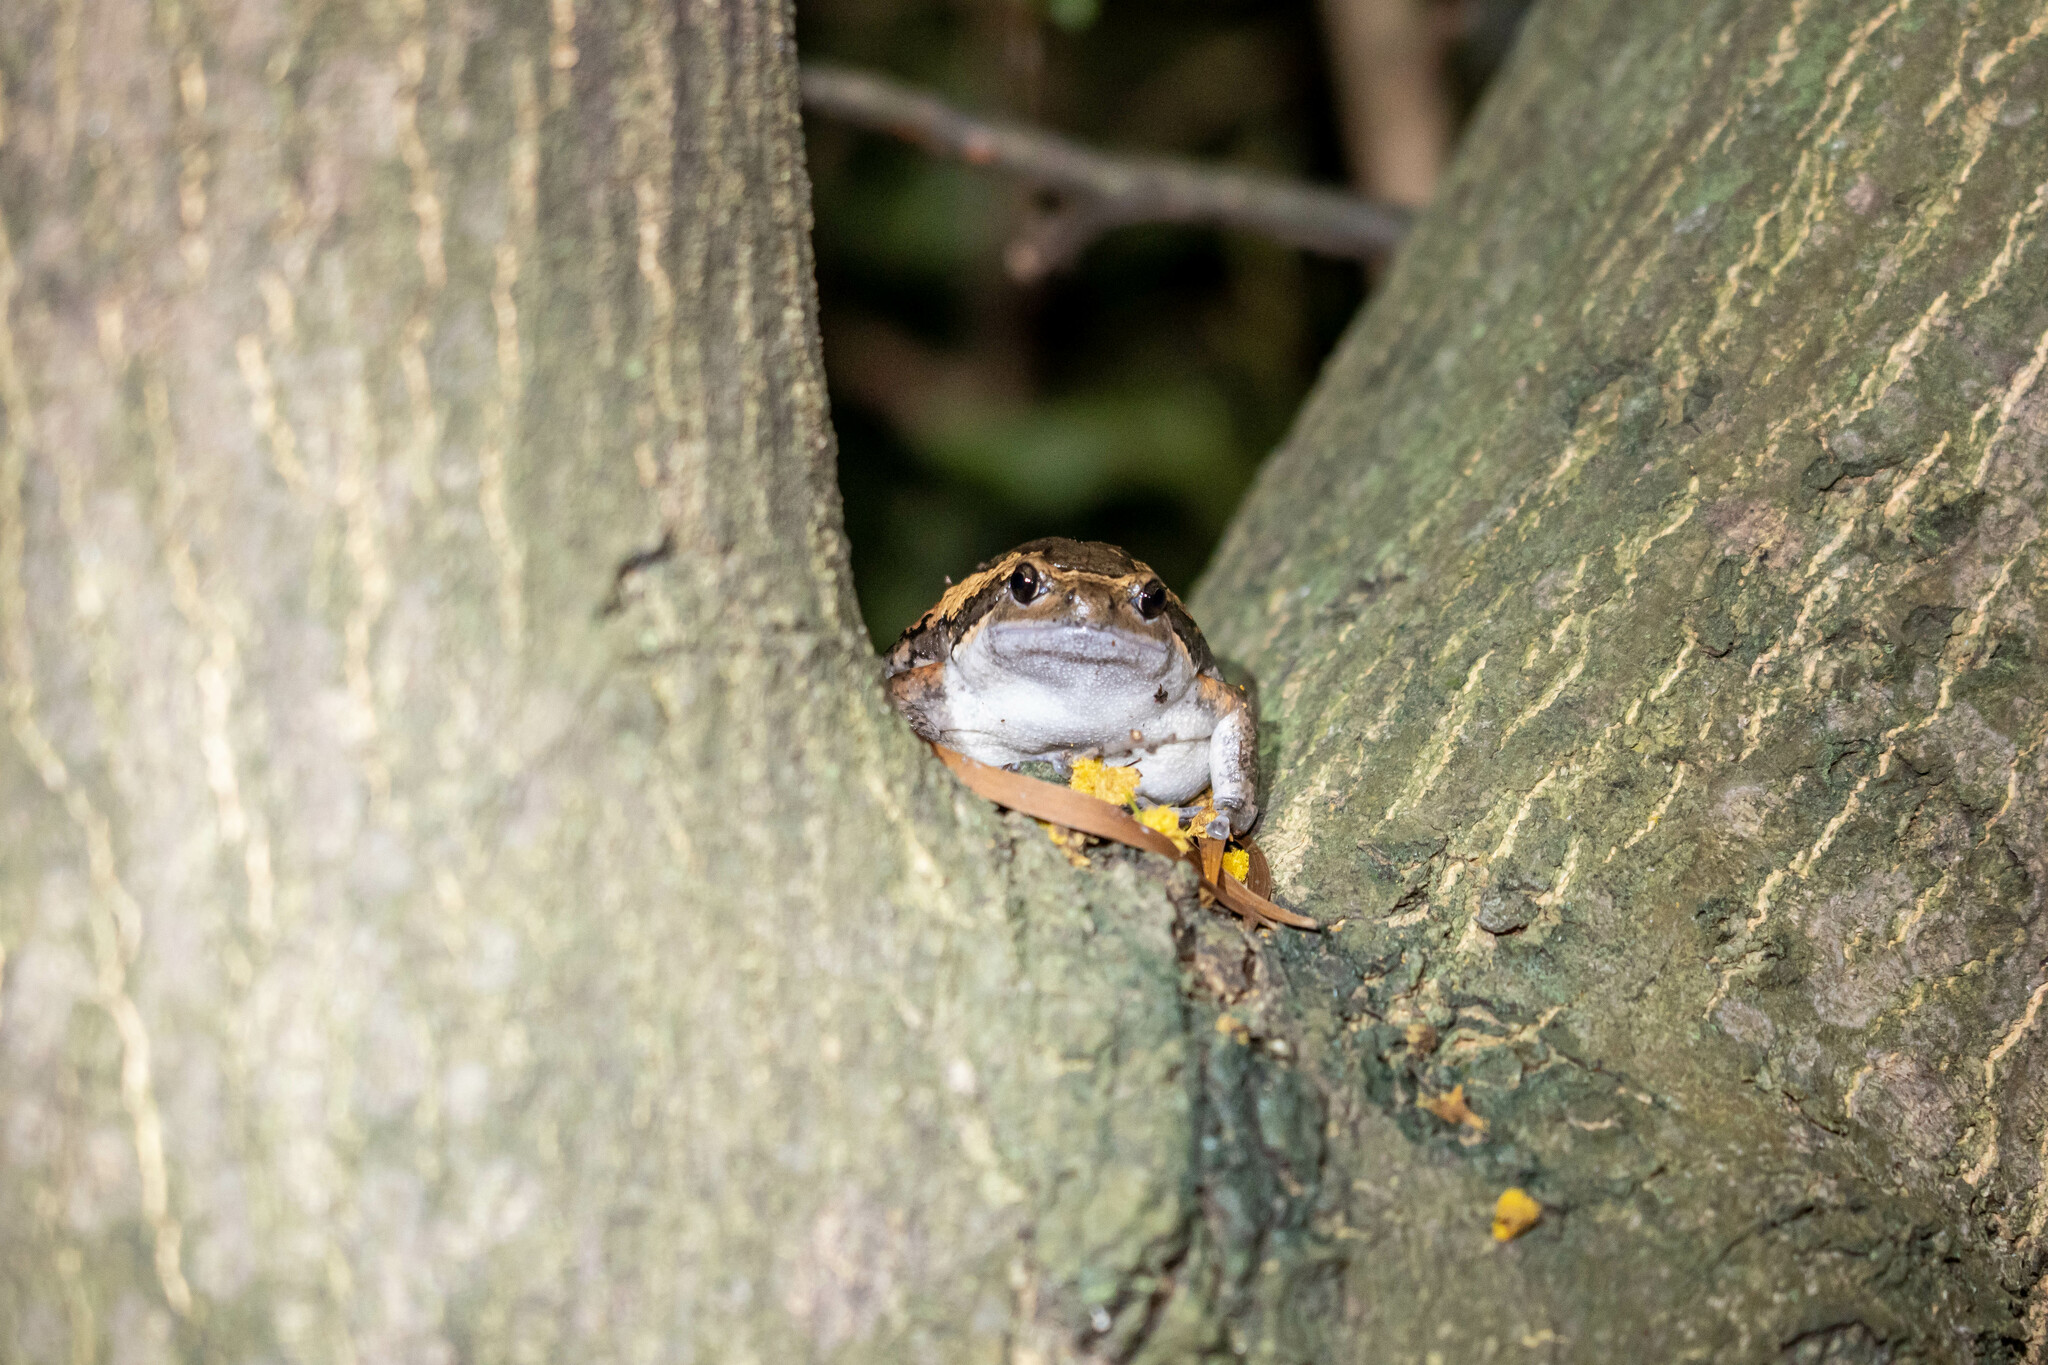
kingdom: Animalia
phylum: Chordata
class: Amphibia
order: Anura
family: Microhylidae
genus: Kaloula
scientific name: Kaloula pulchra
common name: Common,banded bullfrog
